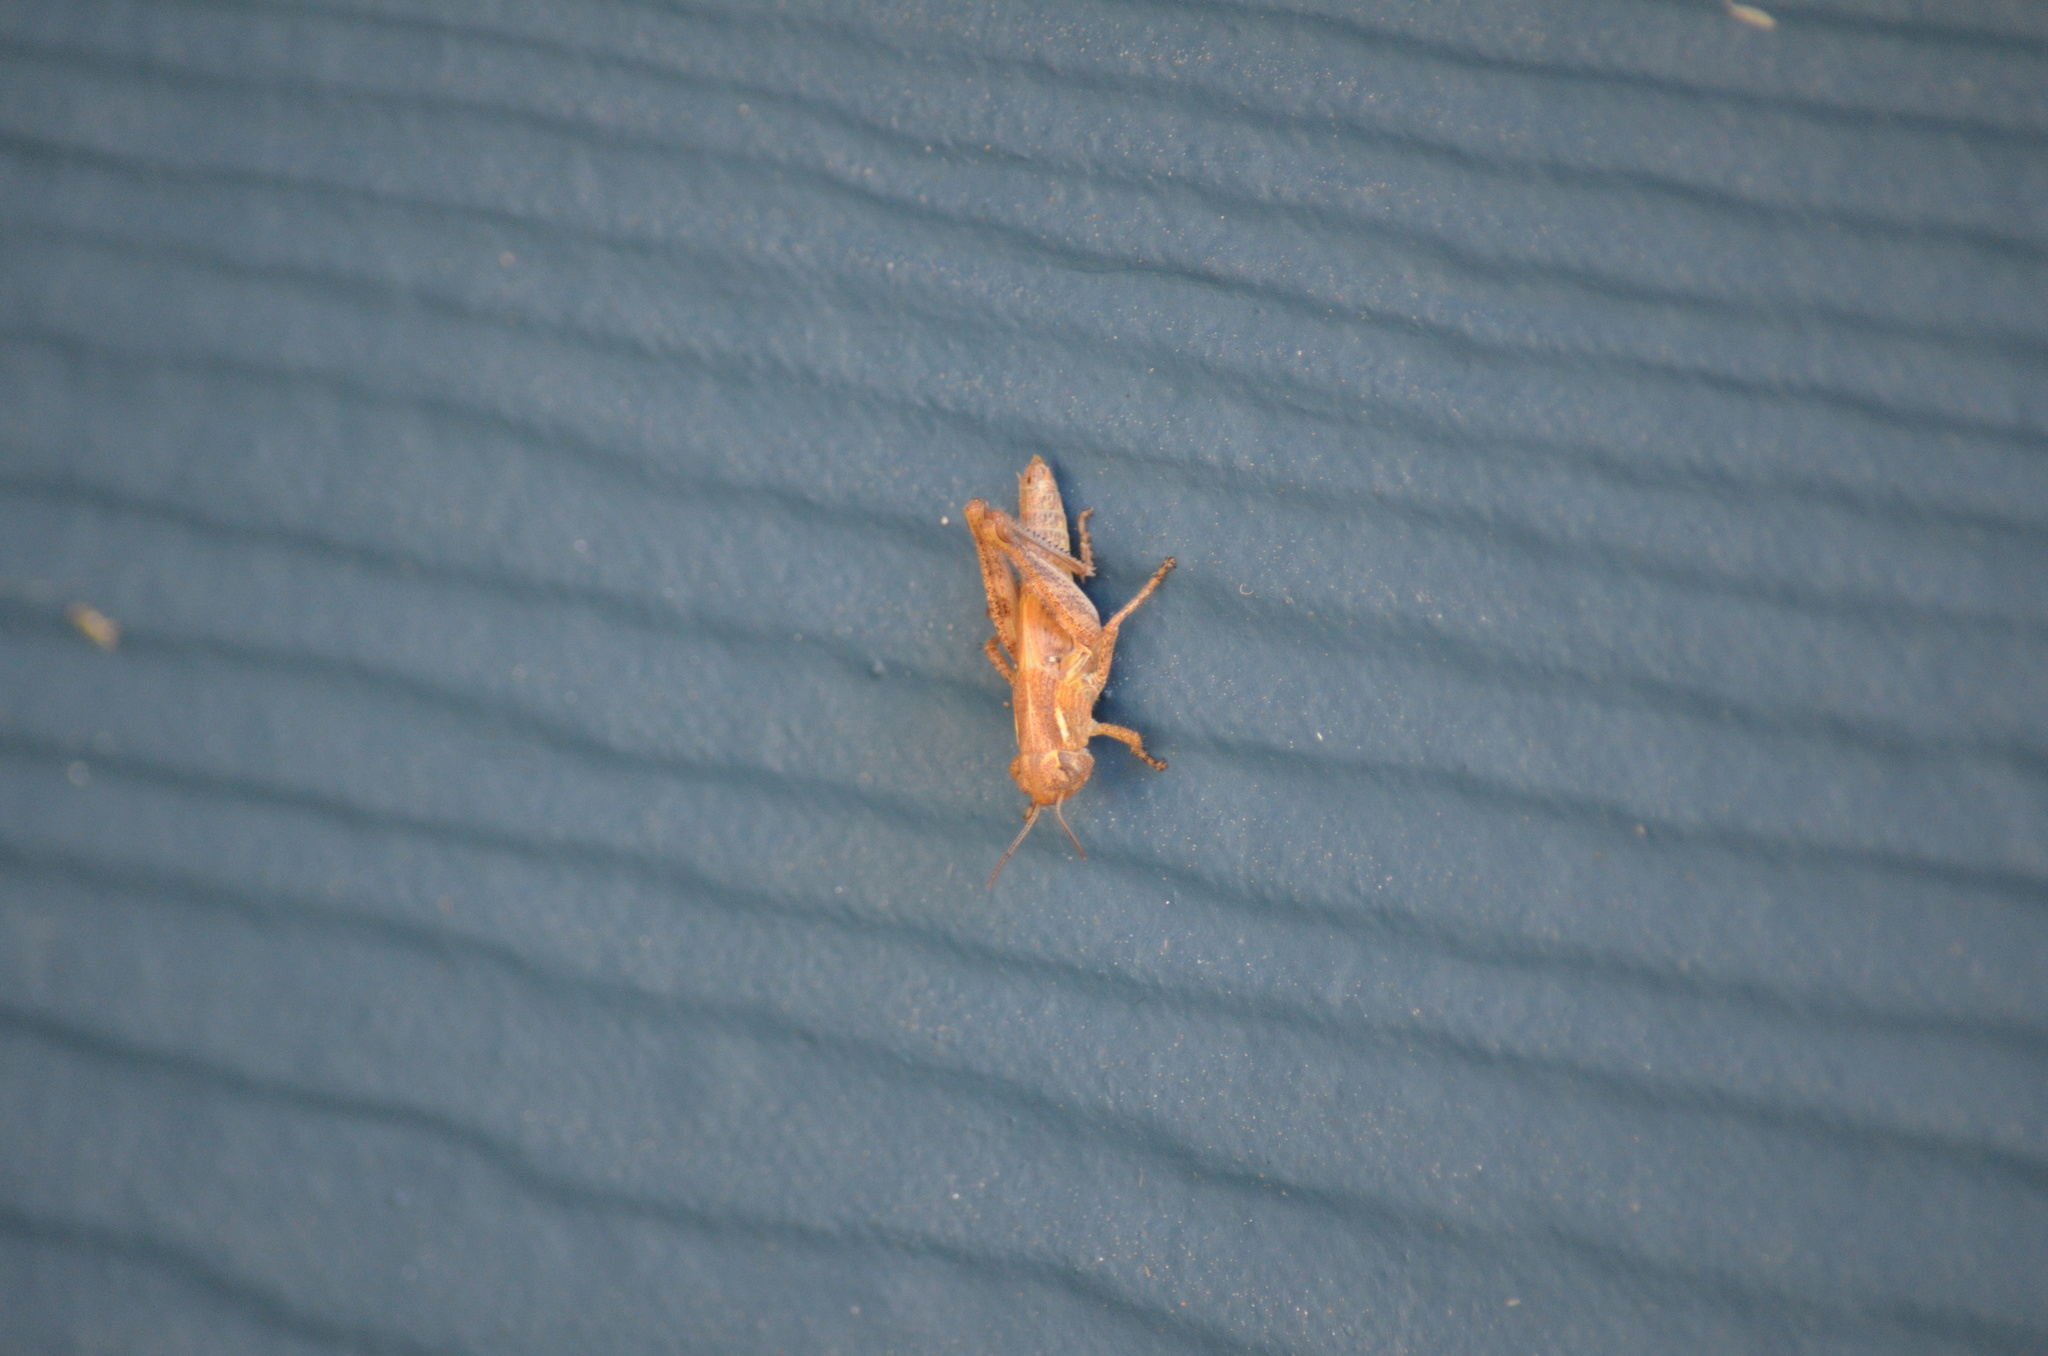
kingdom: Animalia
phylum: Arthropoda
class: Insecta
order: Orthoptera
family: Acrididae
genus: Melanoplus
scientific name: Melanoplus sanguinipes
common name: Migratory grasshopper
